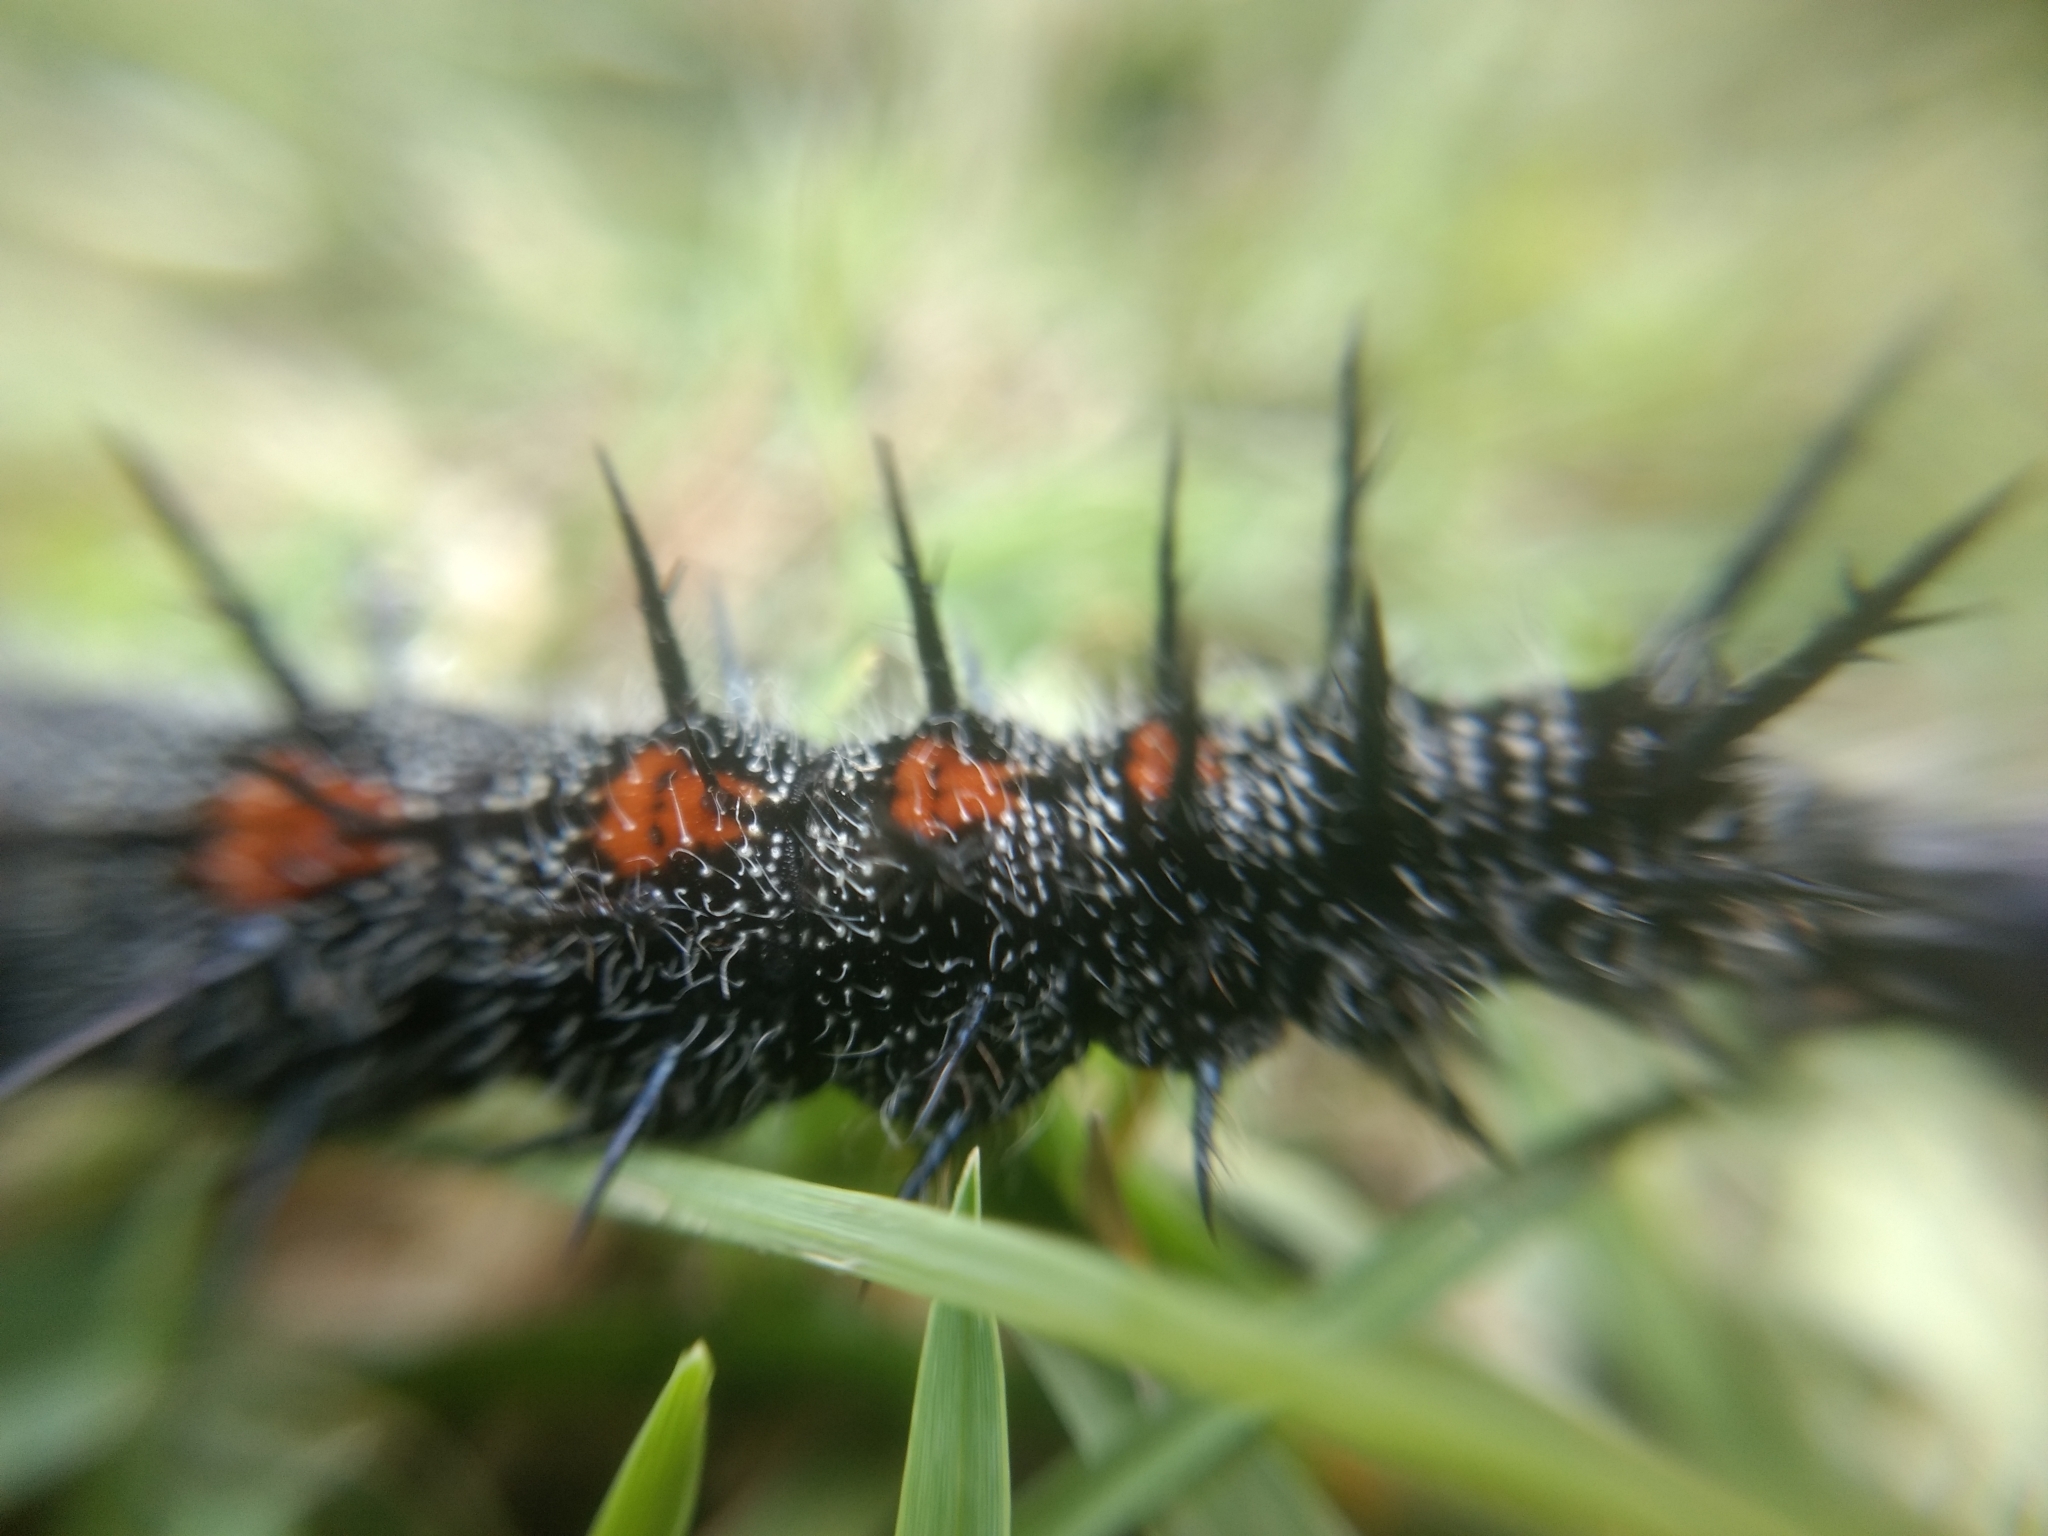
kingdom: Animalia
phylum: Arthropoda
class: Insecta
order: Lepidoptera
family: Nymphalidae
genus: Nymphalis
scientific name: Nymphalis antiopa
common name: Camberwell beauty
